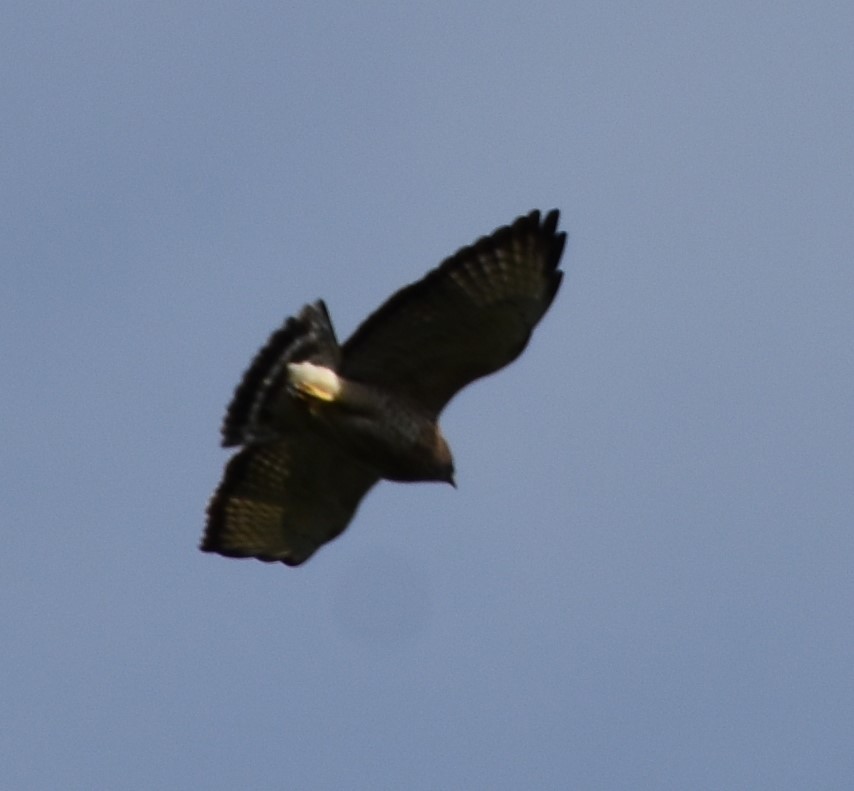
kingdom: Animalia
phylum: Chordata
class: Aves
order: Accipitriformes
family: Accipitridae
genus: Buteo
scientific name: Buteo platypterus
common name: Broad-winged hawk
